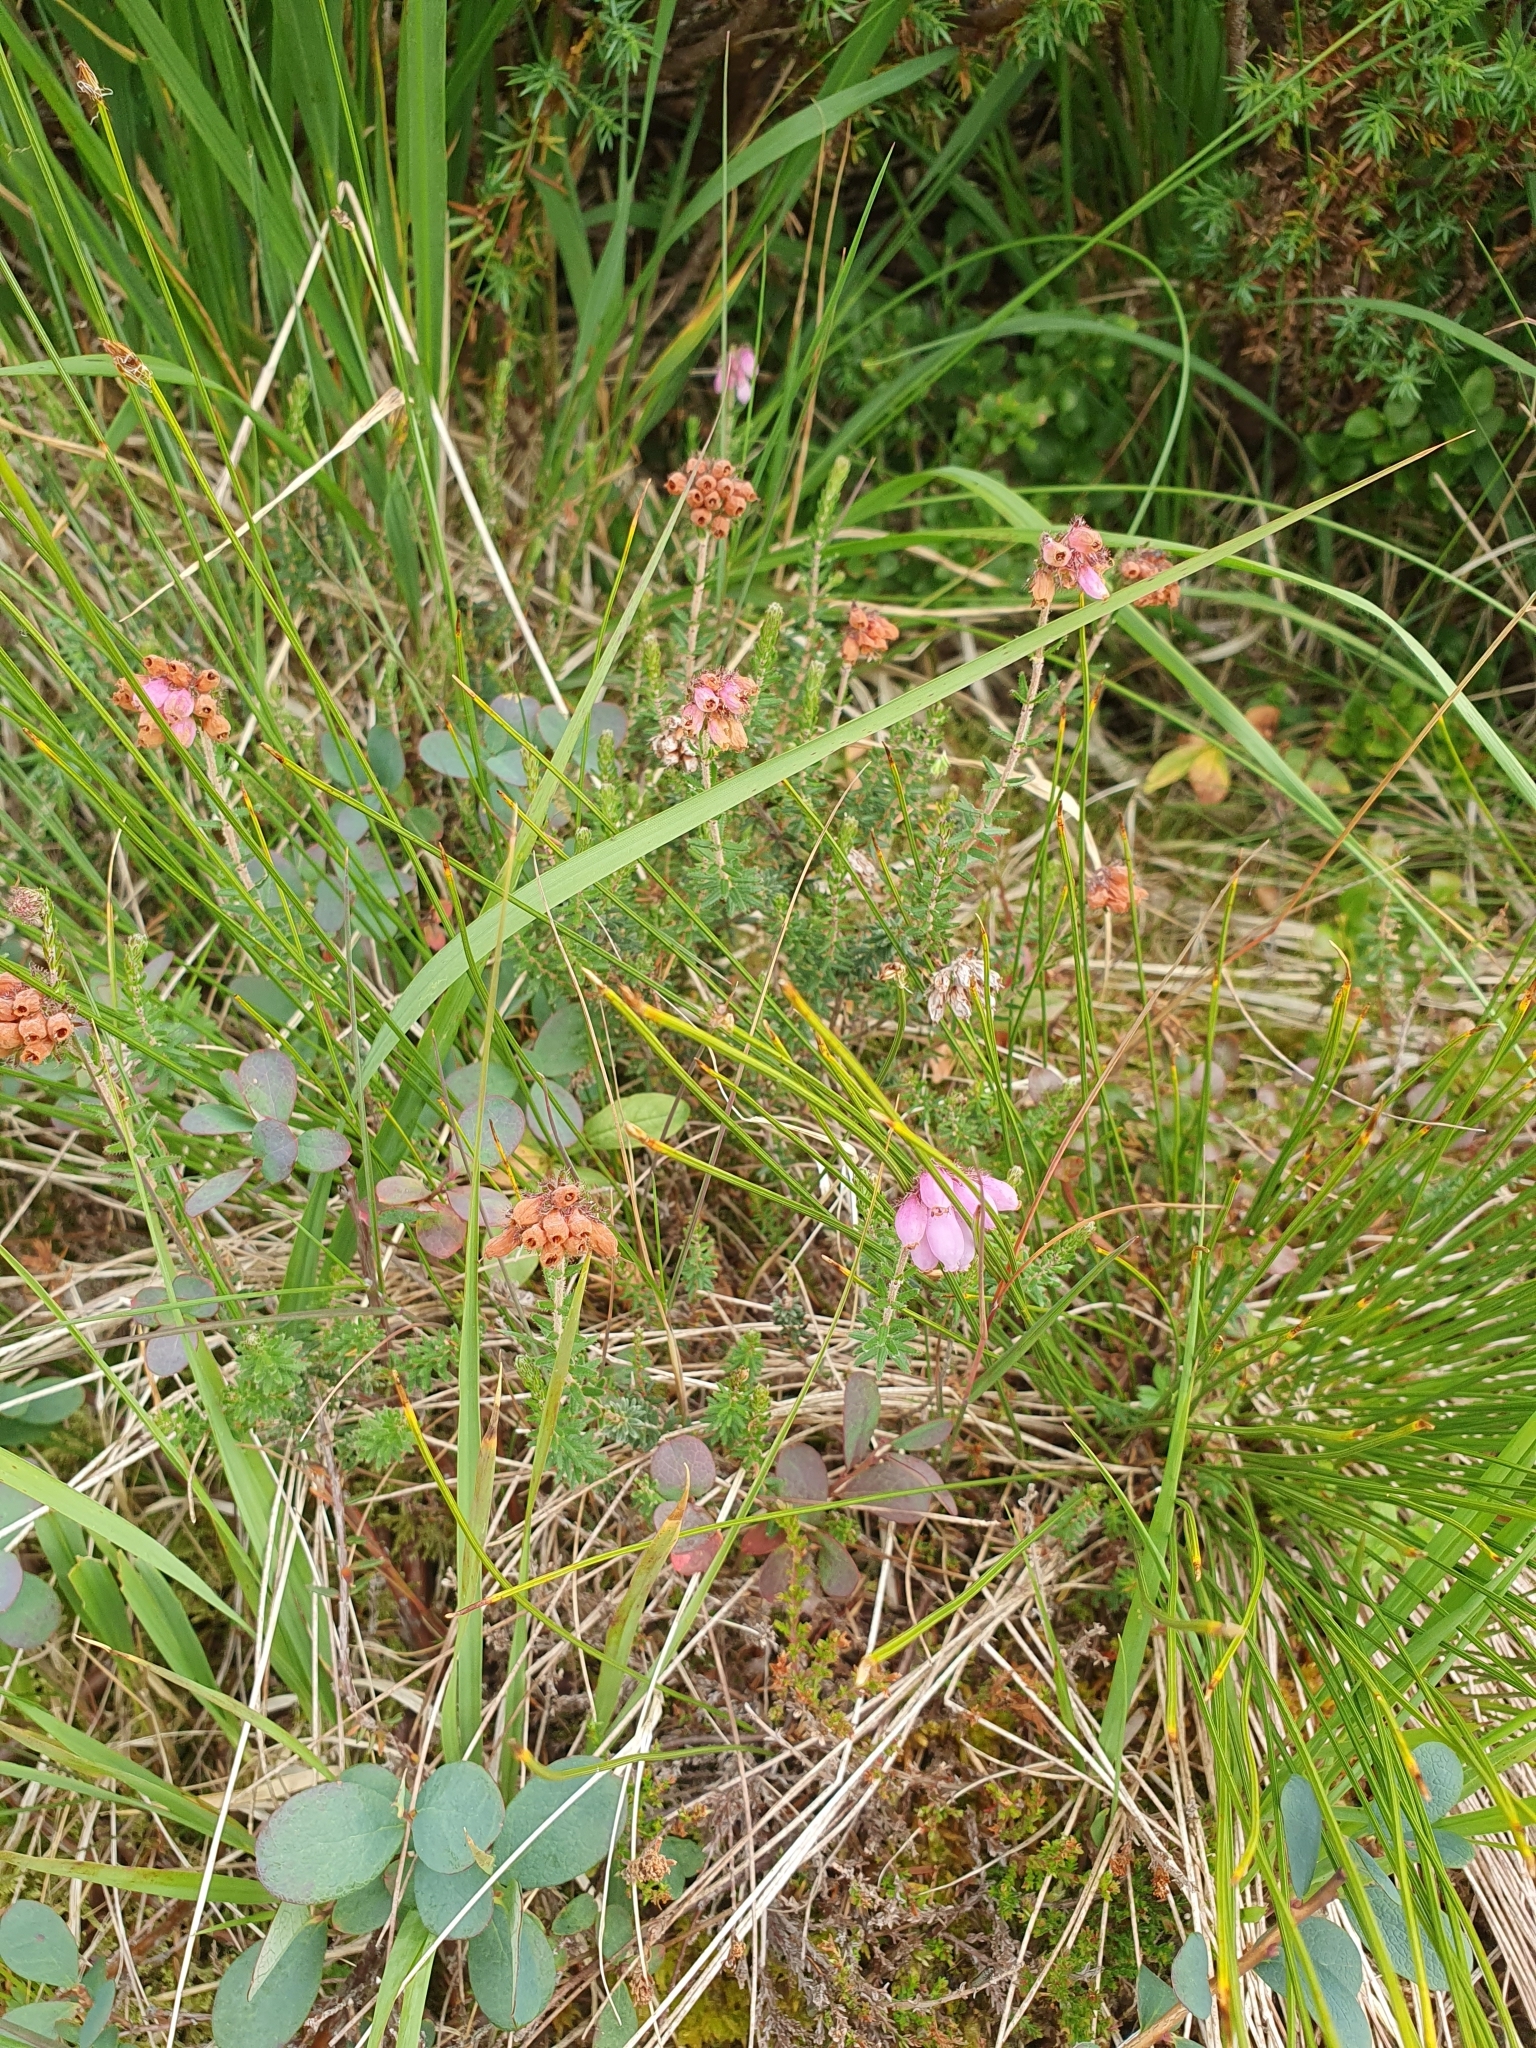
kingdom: Plantae
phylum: Tracheophyta
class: Magnoliopsida
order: Ericales
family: Ericaceae
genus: Erica
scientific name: Erica tetralix
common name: Cross-leaved heath
